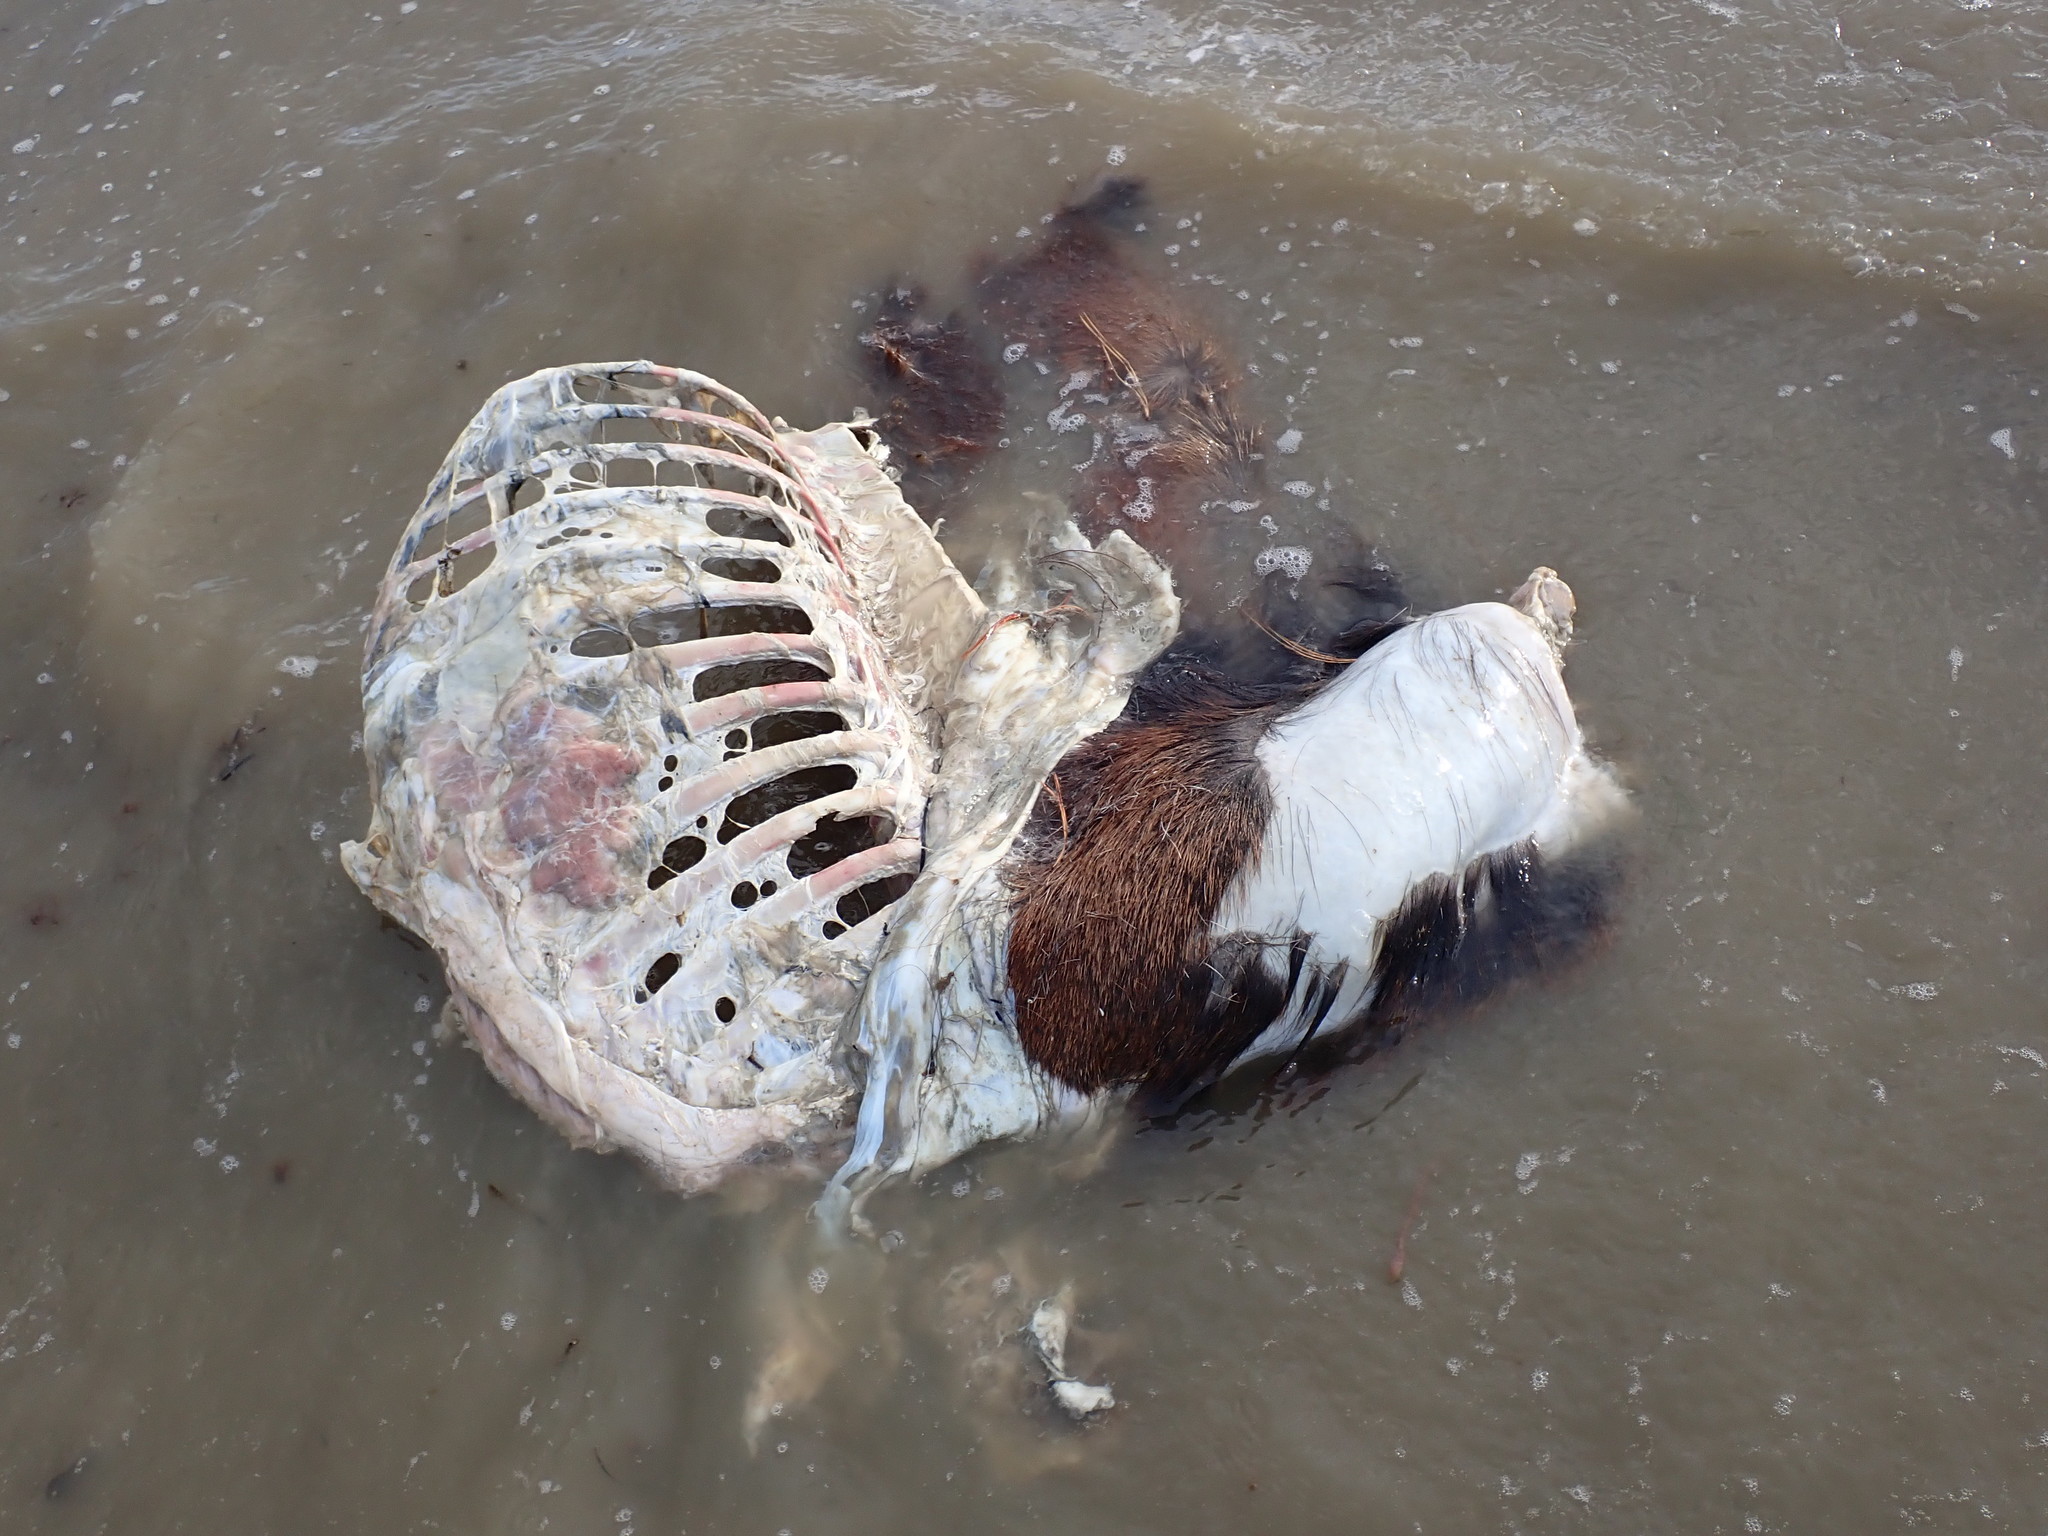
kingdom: Animalia
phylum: Chordata
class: Mammalia
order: Artiodactyla
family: Cervidae
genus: Cervus
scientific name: Cervus elaphus
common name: Red deer
